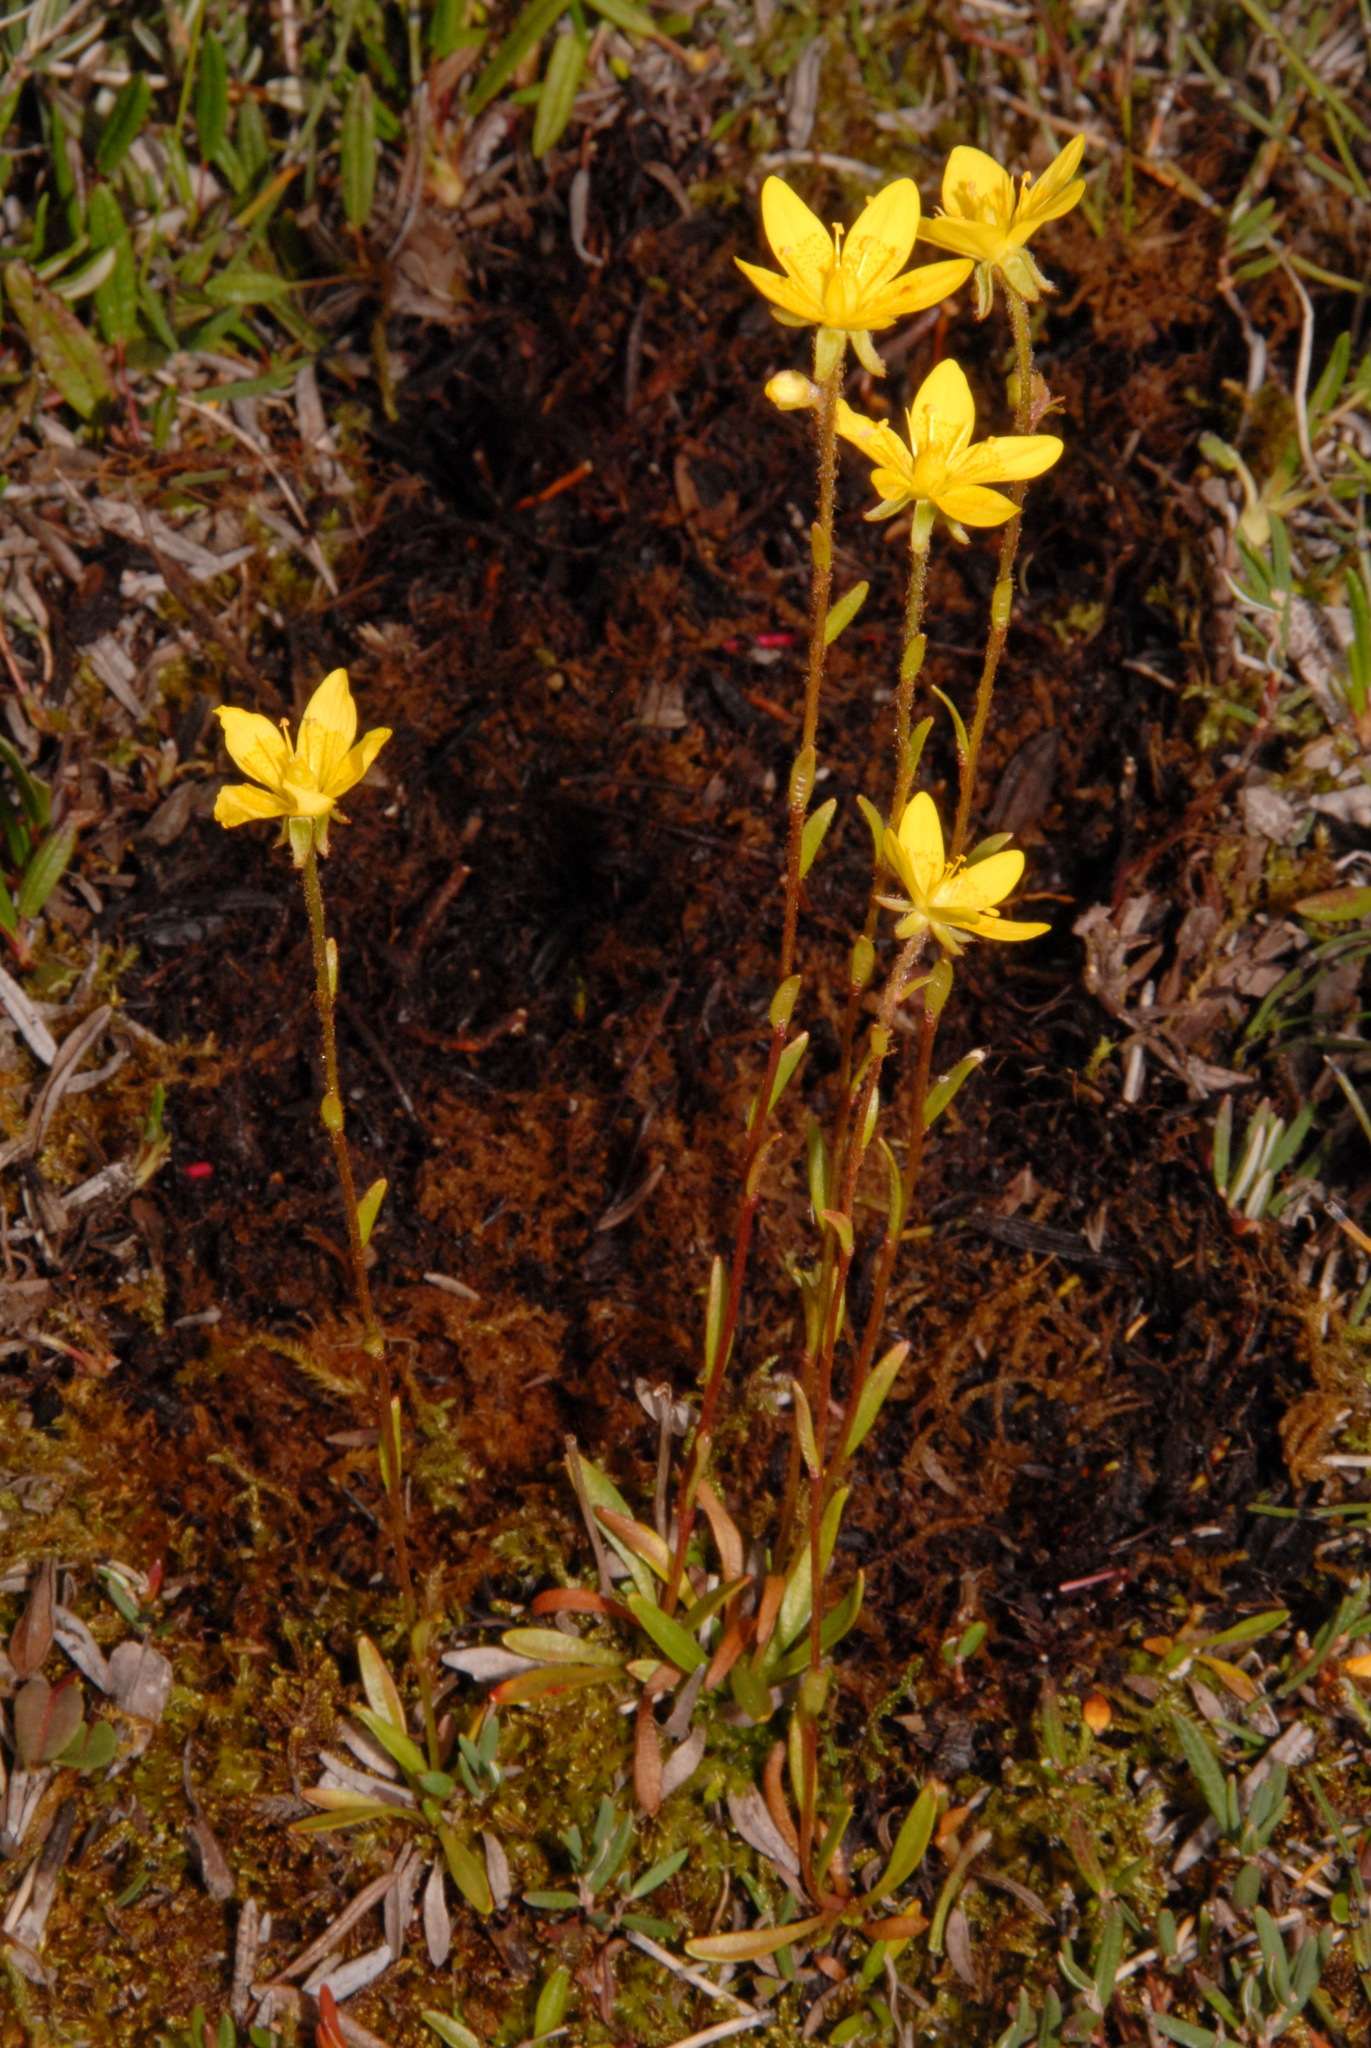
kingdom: Plantae
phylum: Tracheophyta
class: Magnoliopsida
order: Saxifragales
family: Saxifragaceae
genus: Saxifraga
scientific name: Saxifraga hirculus
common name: Yellow marsh saxifrage
